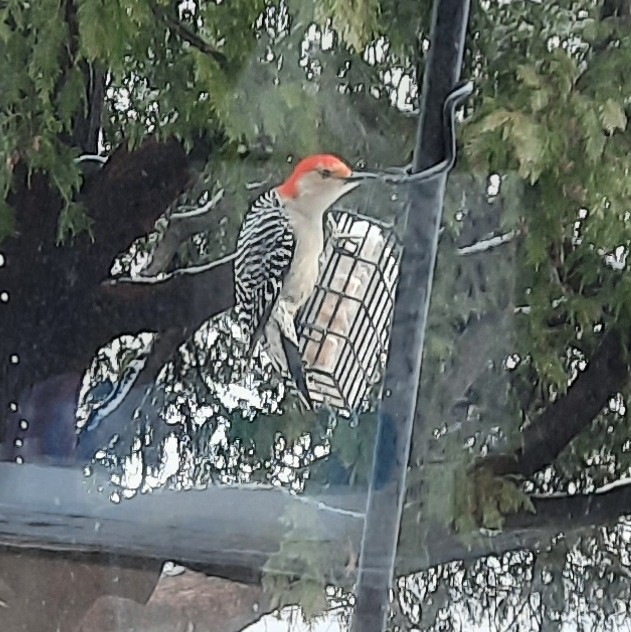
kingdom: Animalia
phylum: Chordata
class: Aves
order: Piciformes
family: Picidae
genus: Melanerpes
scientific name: Melanerpes carolinus
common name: Red-bellied woodpecker
